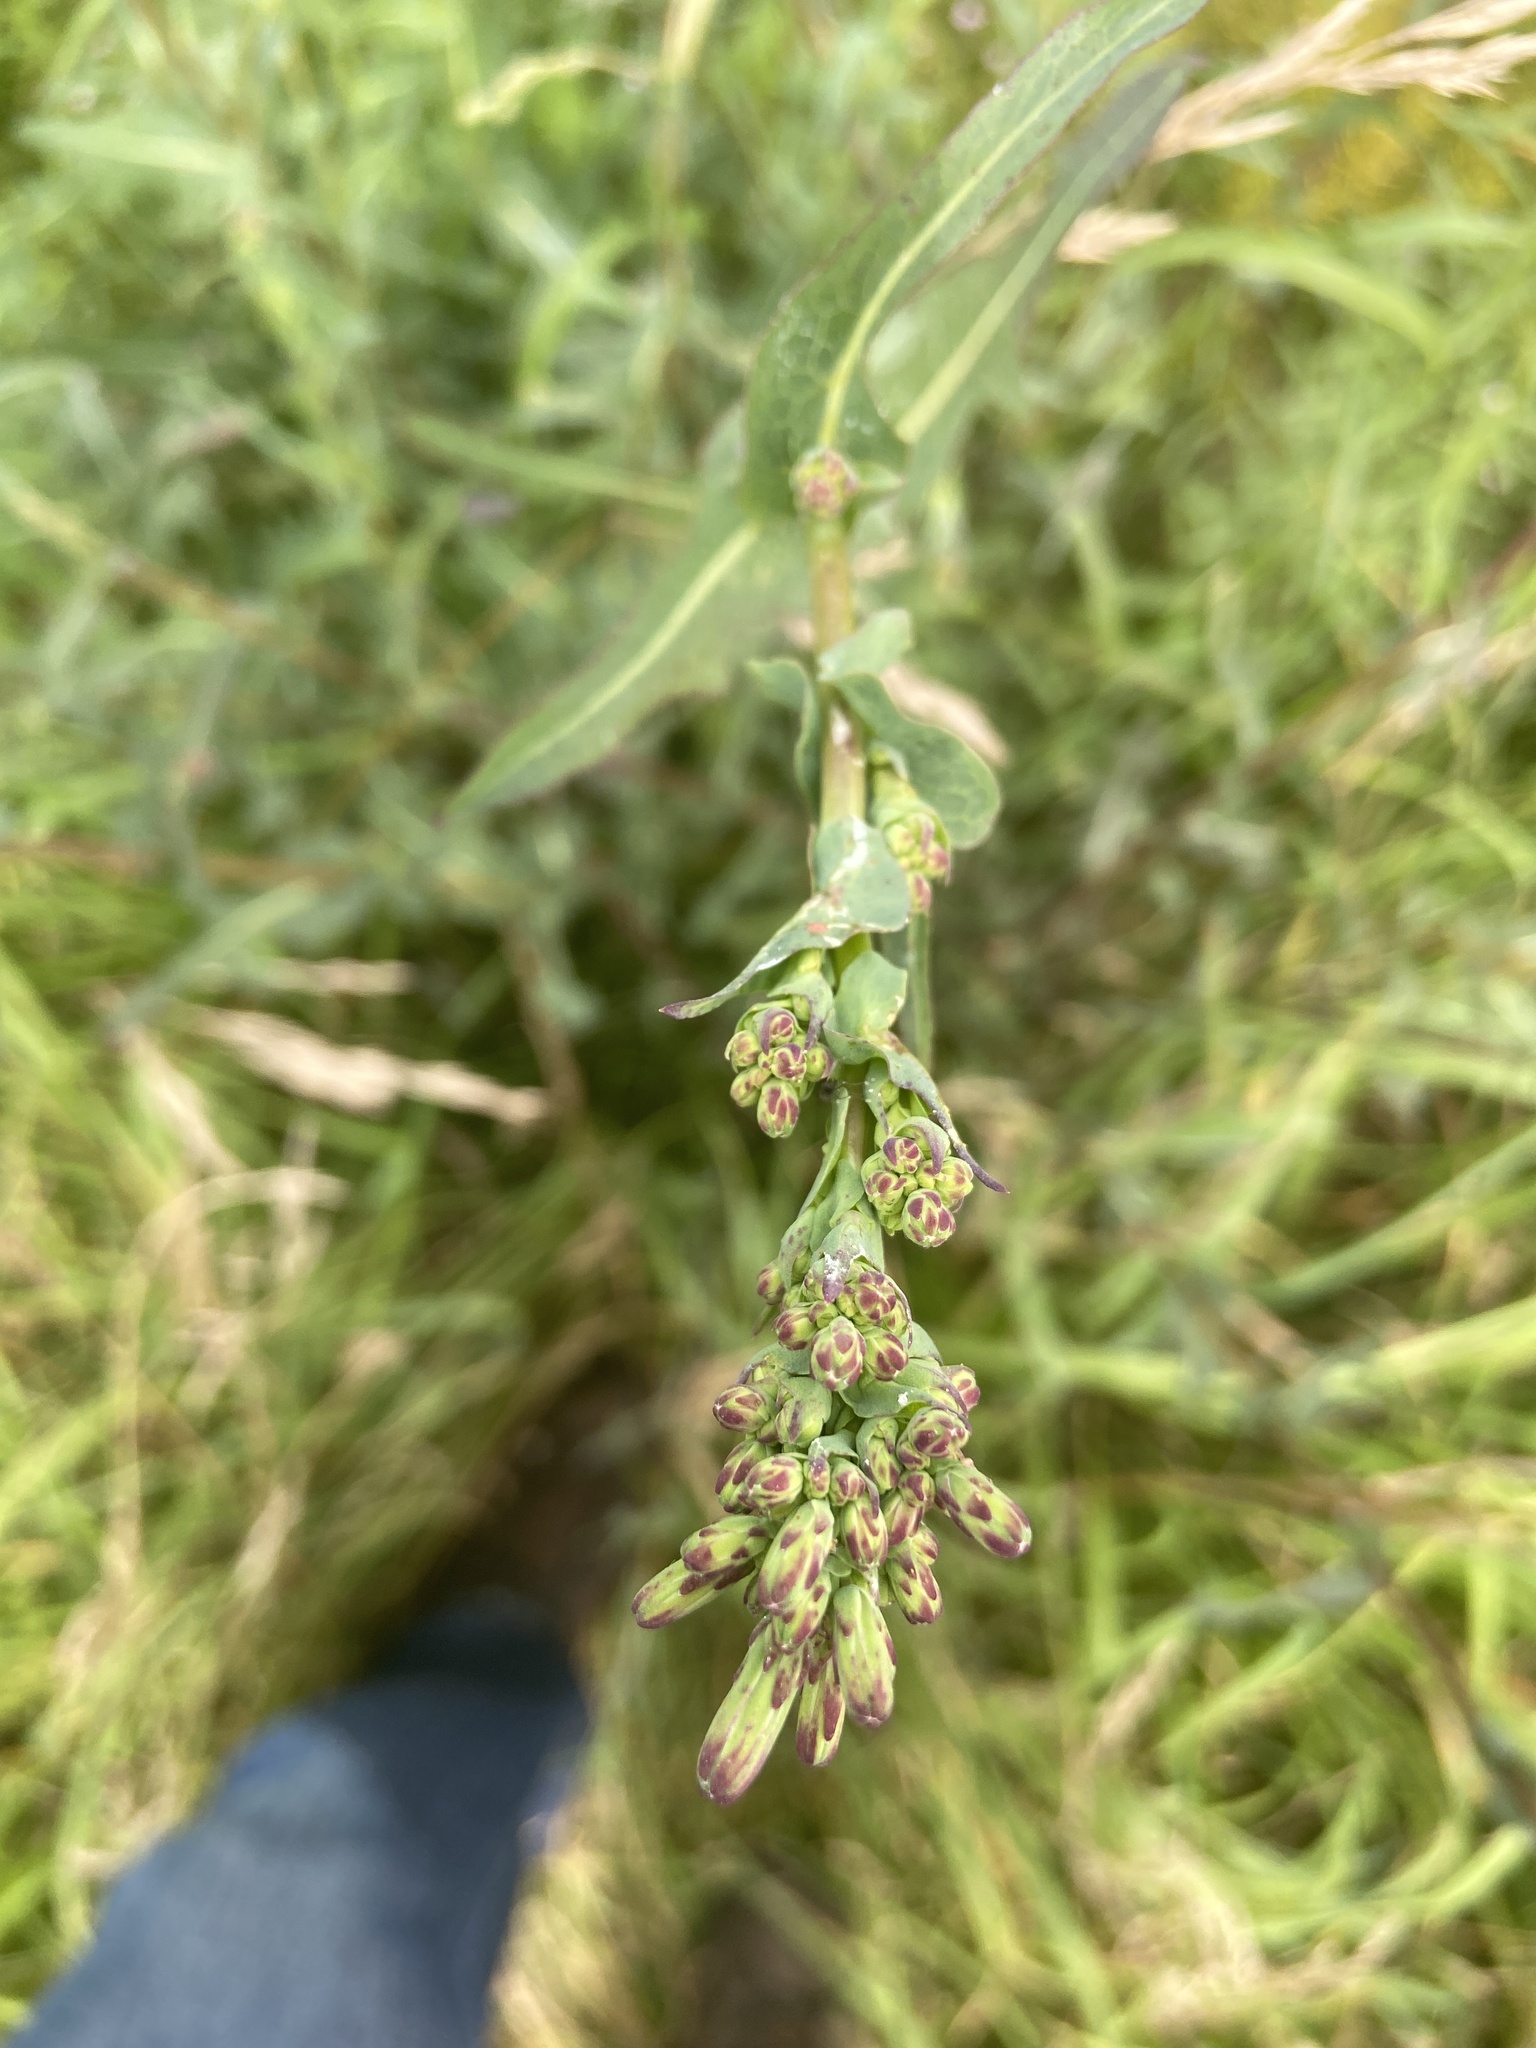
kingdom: Plantae
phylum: Tracheophyta
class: Magnoliopsida
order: Asterales
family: Asteraceae
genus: Lactuca
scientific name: Lactuca serriola
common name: Prickly lettuce
